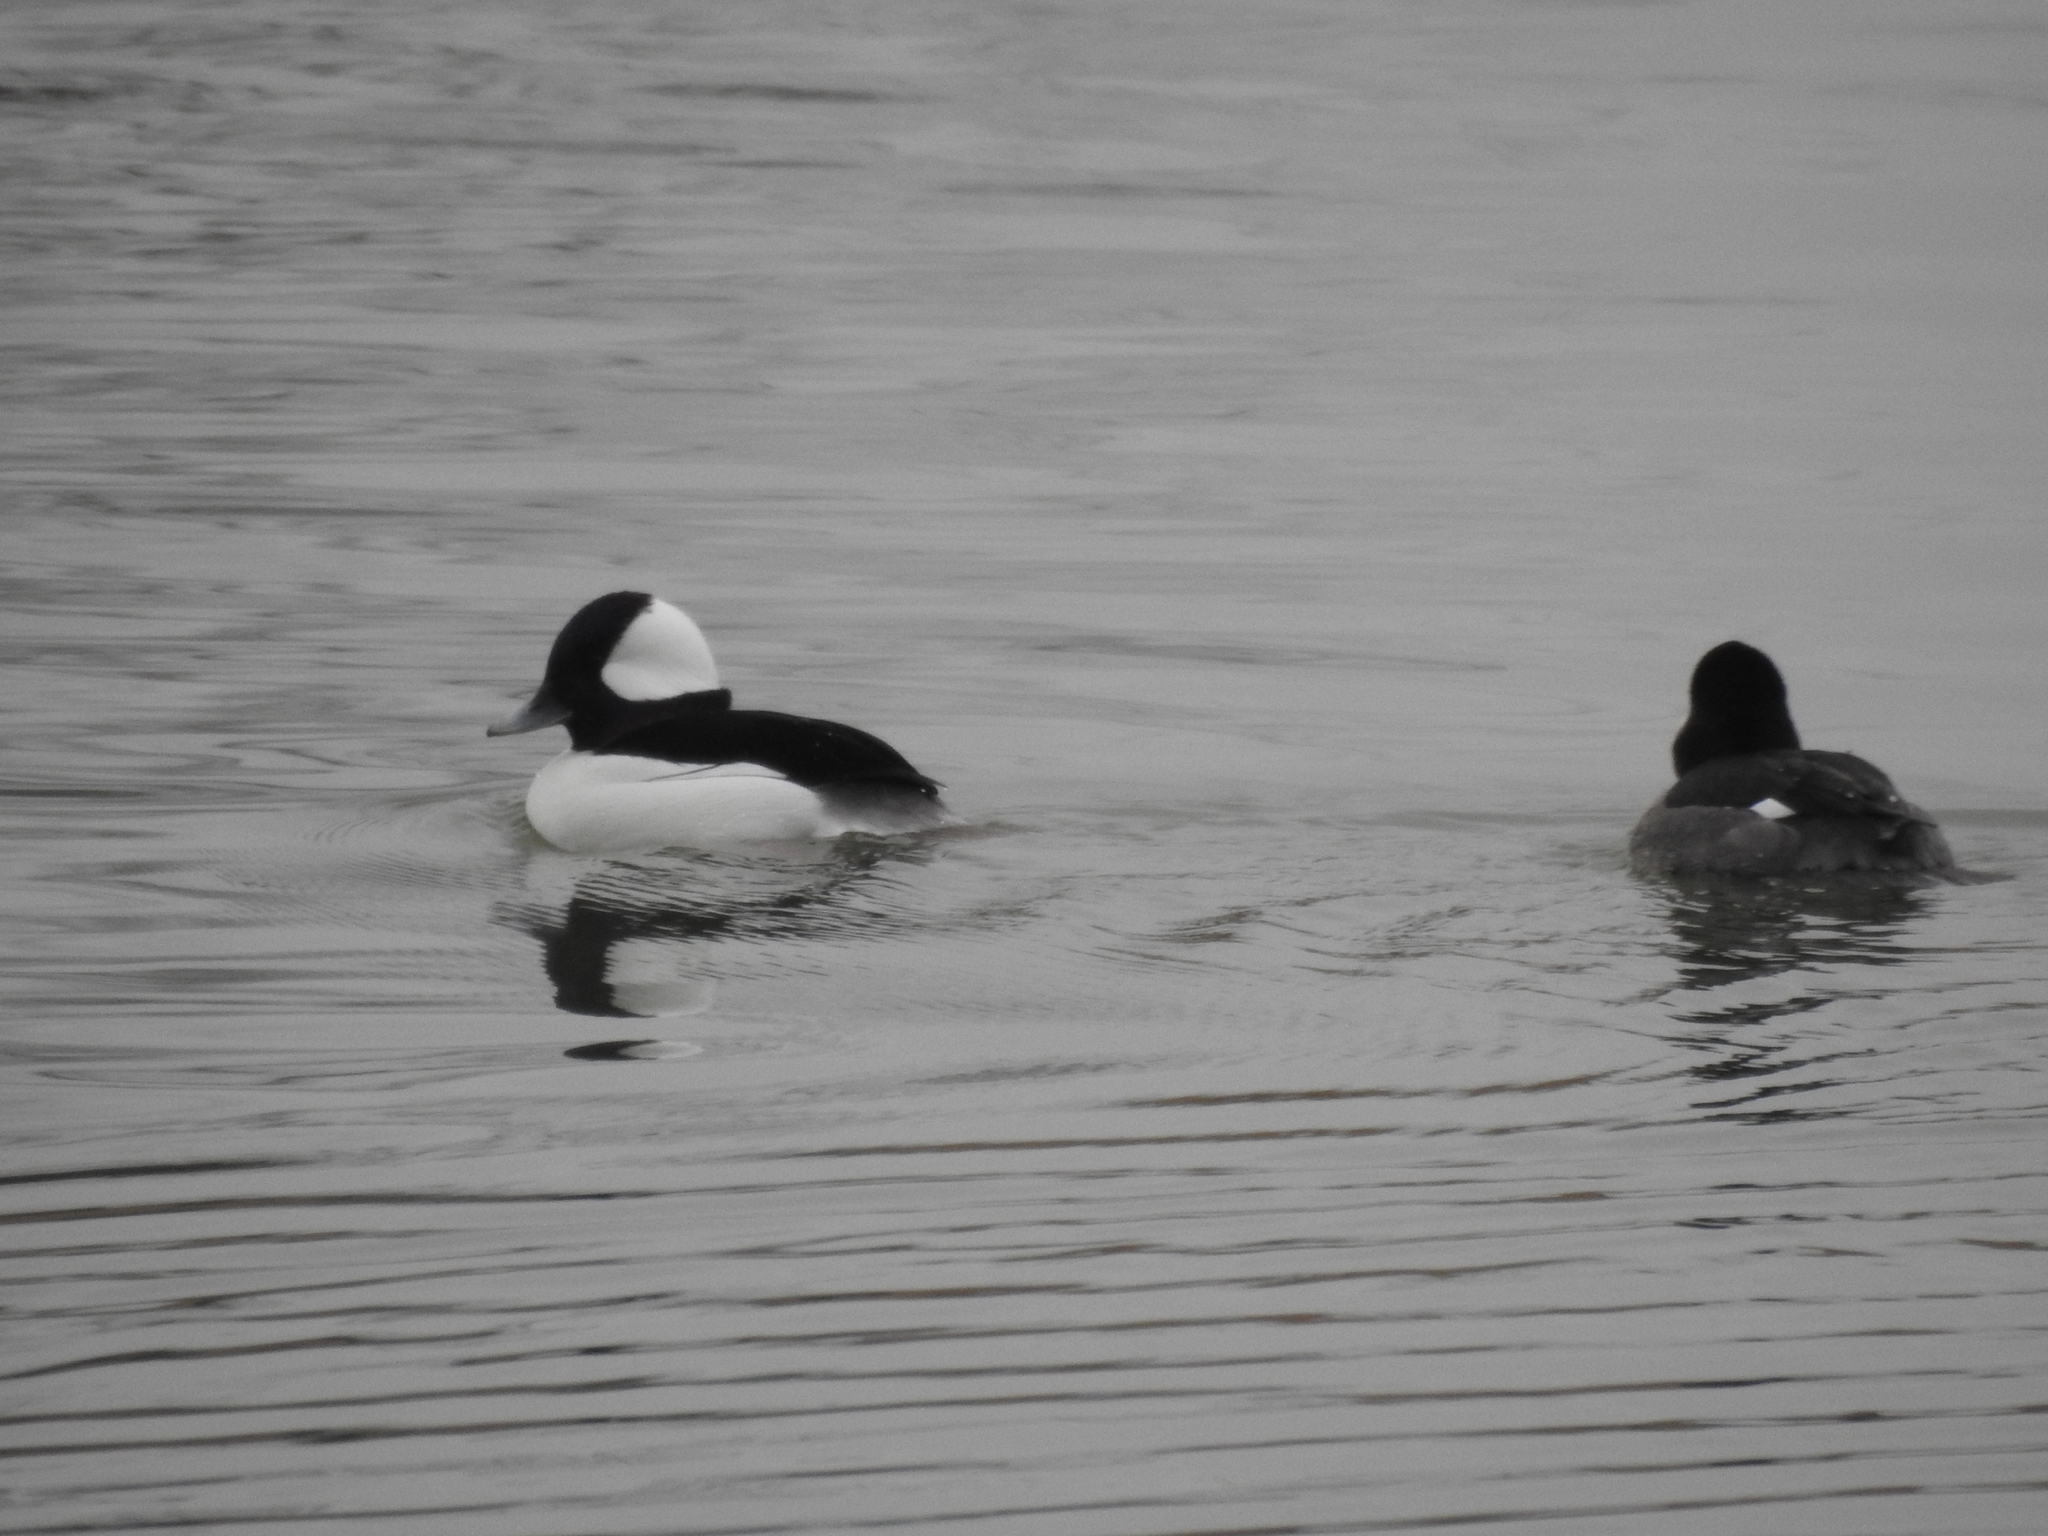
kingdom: Animalia
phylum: Chordata
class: Aves
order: Anseriformes
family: Anatidae
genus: Bucephala
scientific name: Bucephala albeola
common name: Bufflehead
